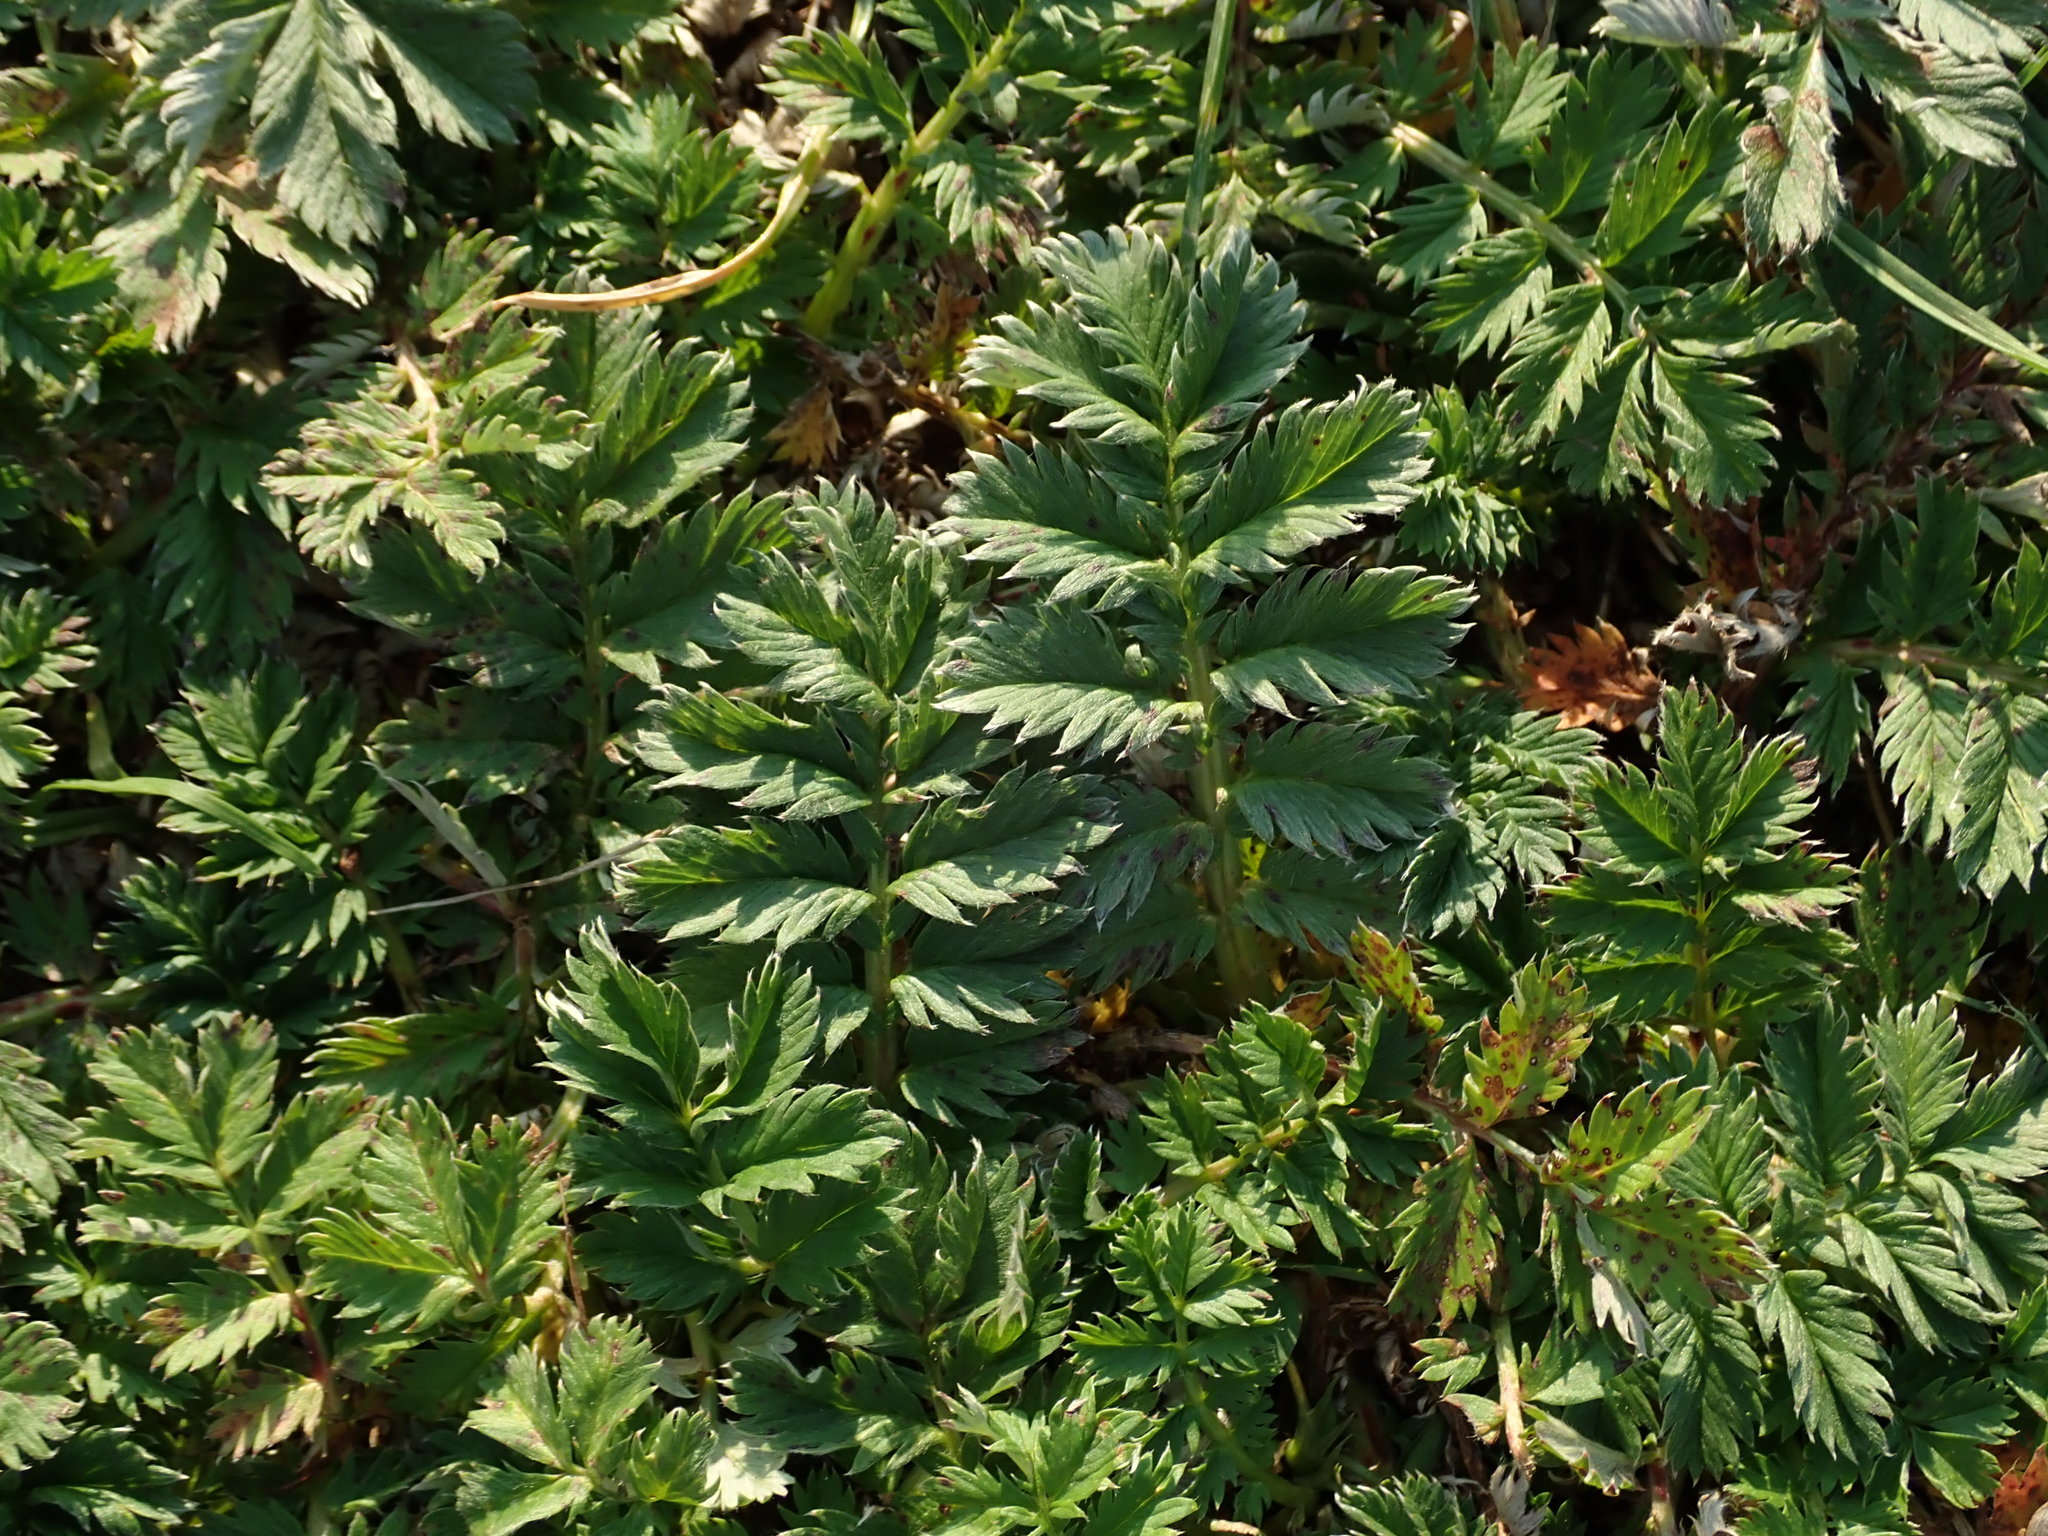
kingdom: Plantae
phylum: Tracheophyta
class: Magnoliopsida
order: Rosales
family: Rosaceae
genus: Argentina
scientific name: Argentina anserina
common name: Common silverweed
